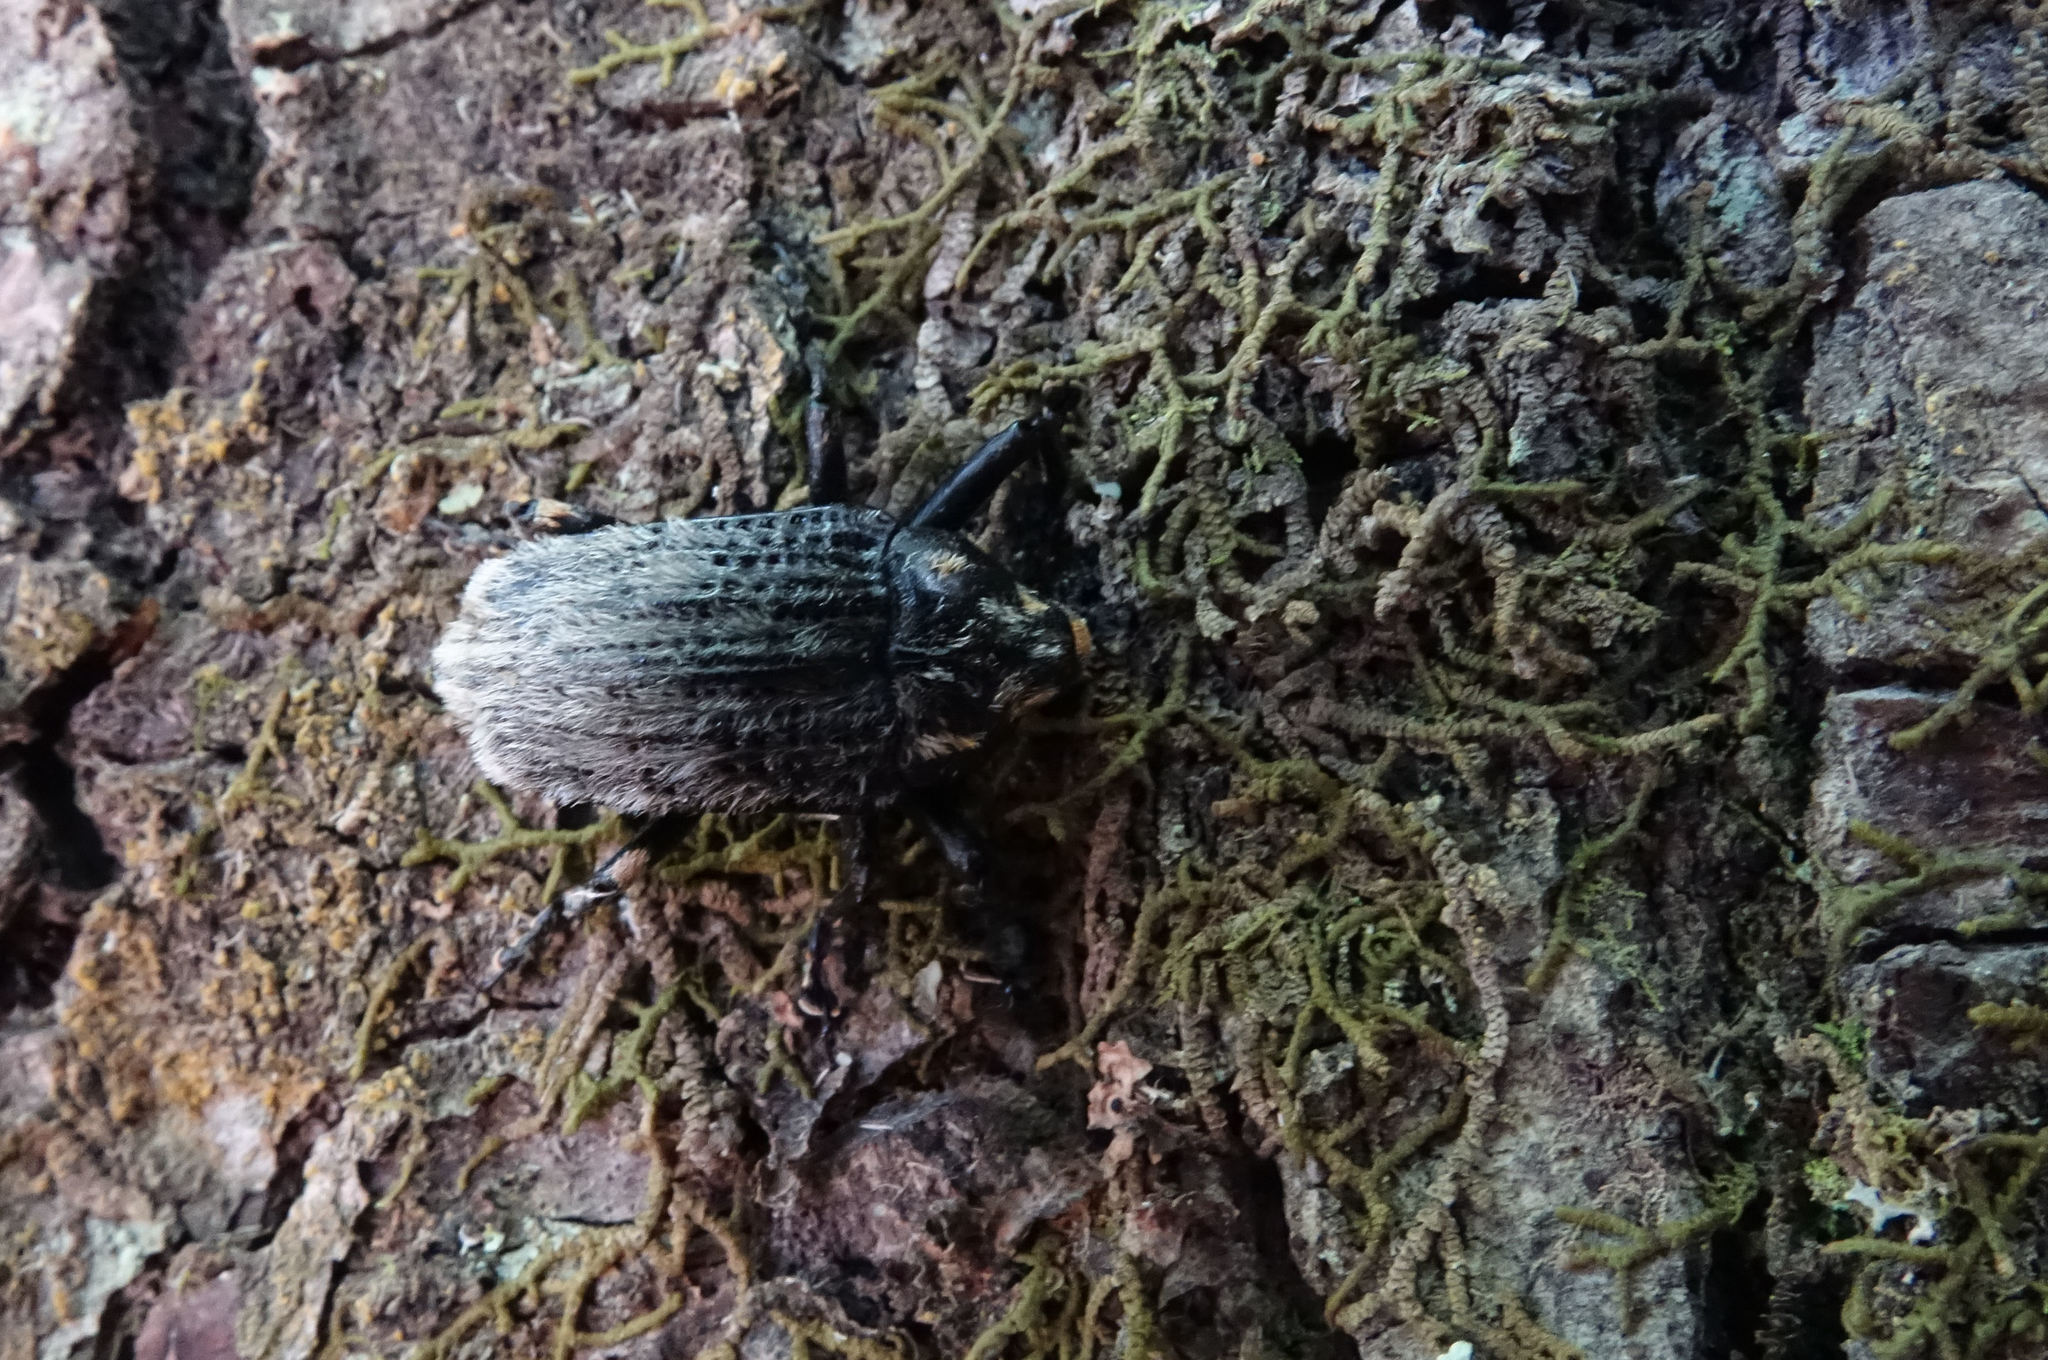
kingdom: Animalia
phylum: Arthropoda
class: Insecta
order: Coleoptera
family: Curculionidae
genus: Rhynchodes
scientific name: Rhynchodes ursus
